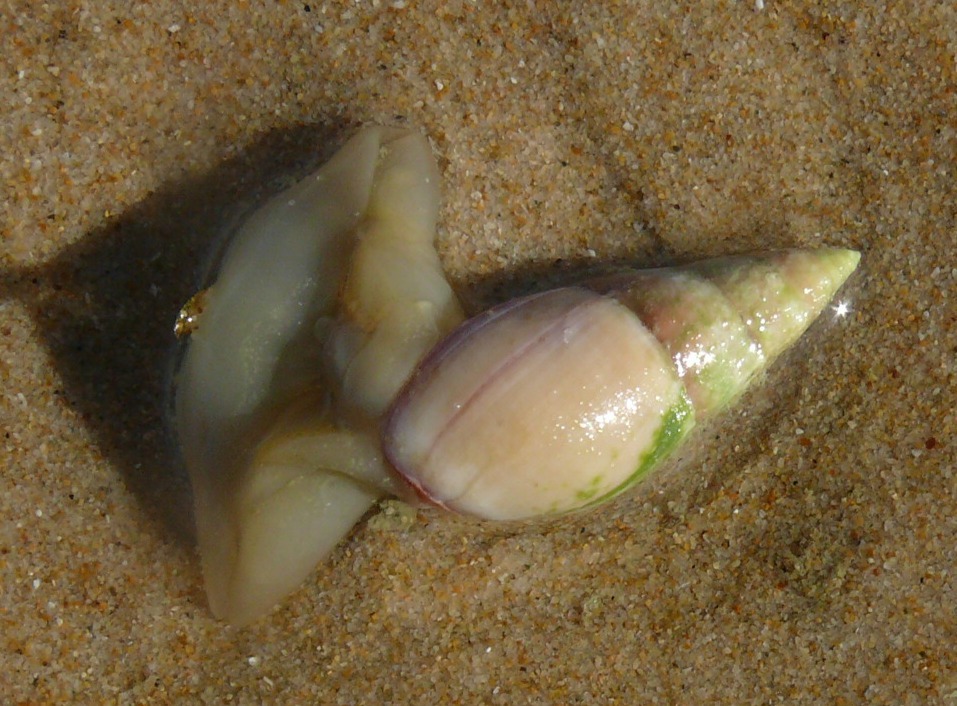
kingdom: Animalia
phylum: Mollusca
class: Gastropoda
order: Neogastropoda
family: Nassariidae
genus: Bullia
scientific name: Bullia rhodostoma
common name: Smooth plough shell
